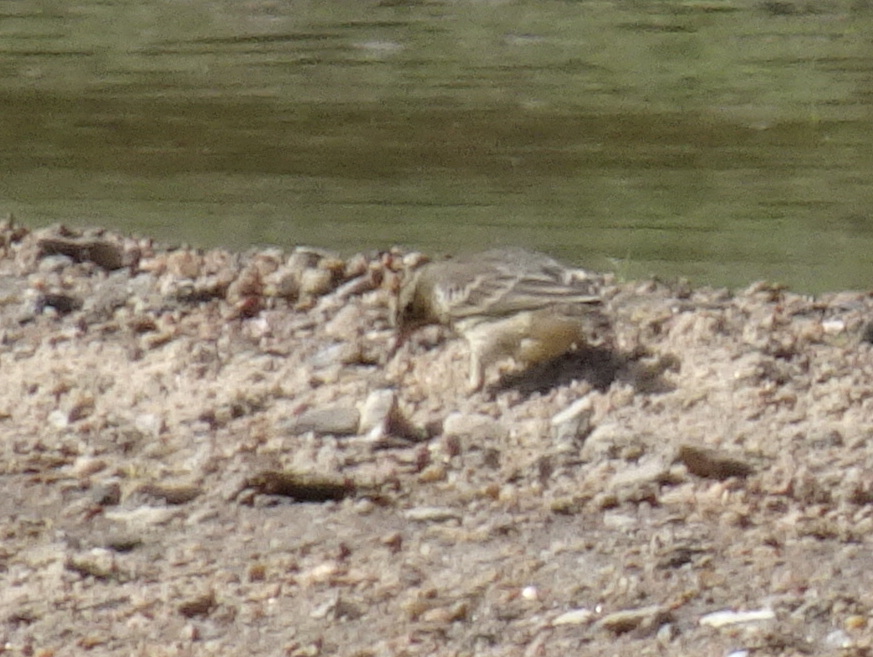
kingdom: Animalia
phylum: Chordata
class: Aves
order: Passeriformes
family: Motacillidae
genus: Anthus
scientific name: Anthus rubescens
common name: Buff-bellied pipit
